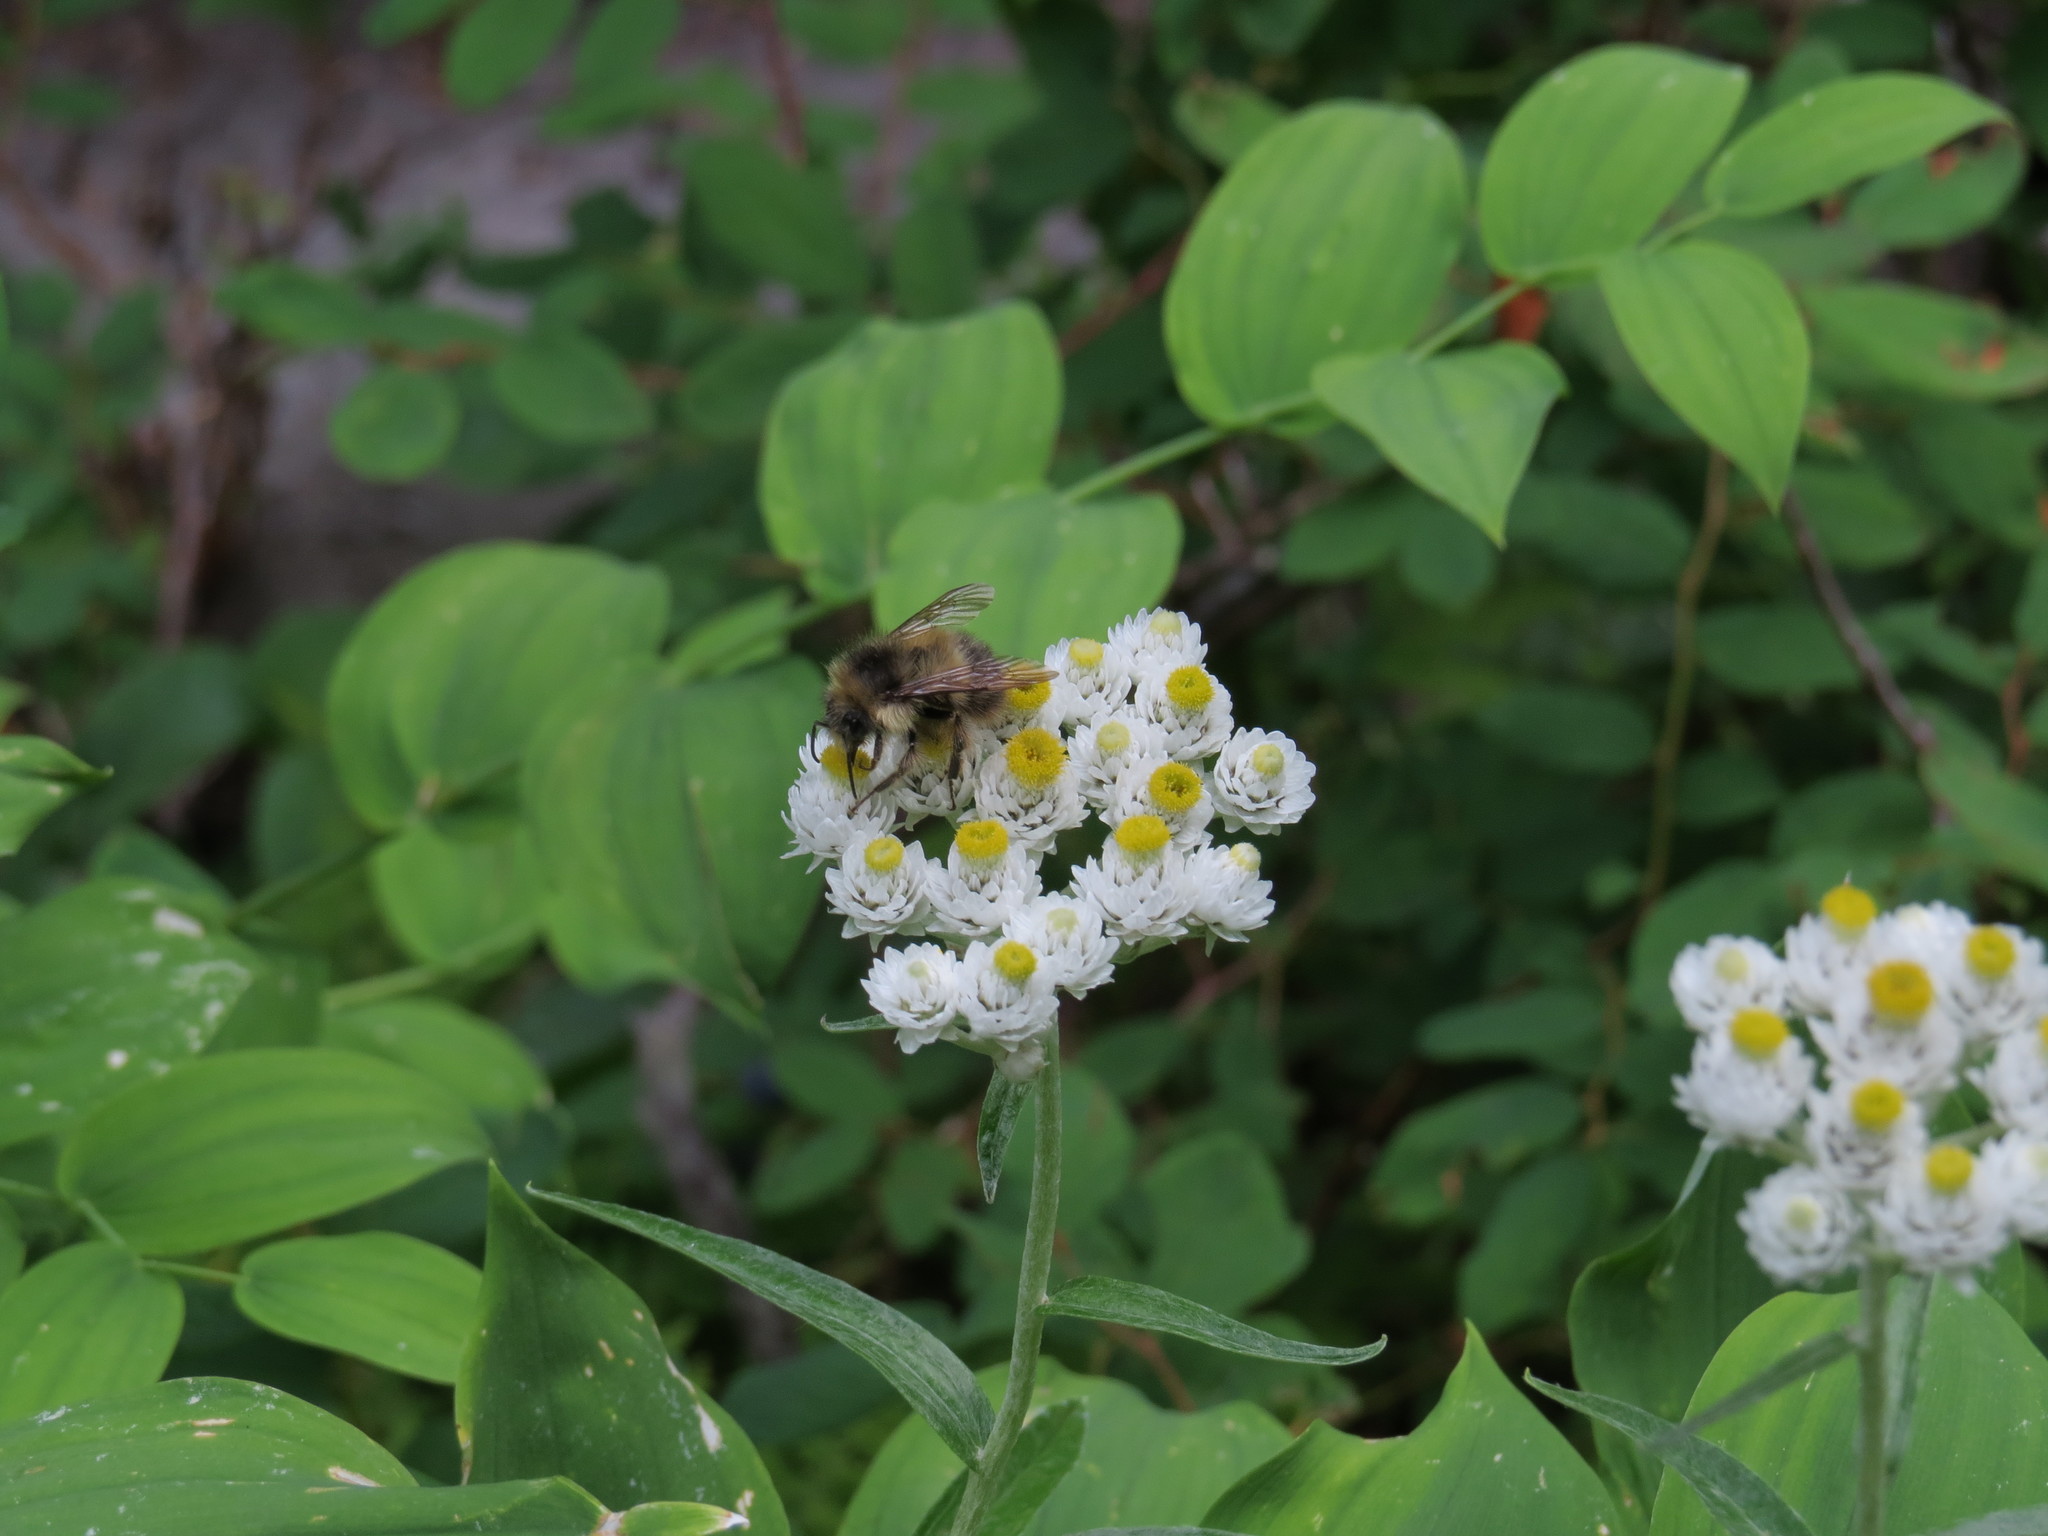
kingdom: Plantae
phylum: Tracheophyta
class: Magnoliopsida
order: Asterales
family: Asteraceae
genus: Anaphalis
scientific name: Anaphalis margaritacea
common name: Pearly everlasting
